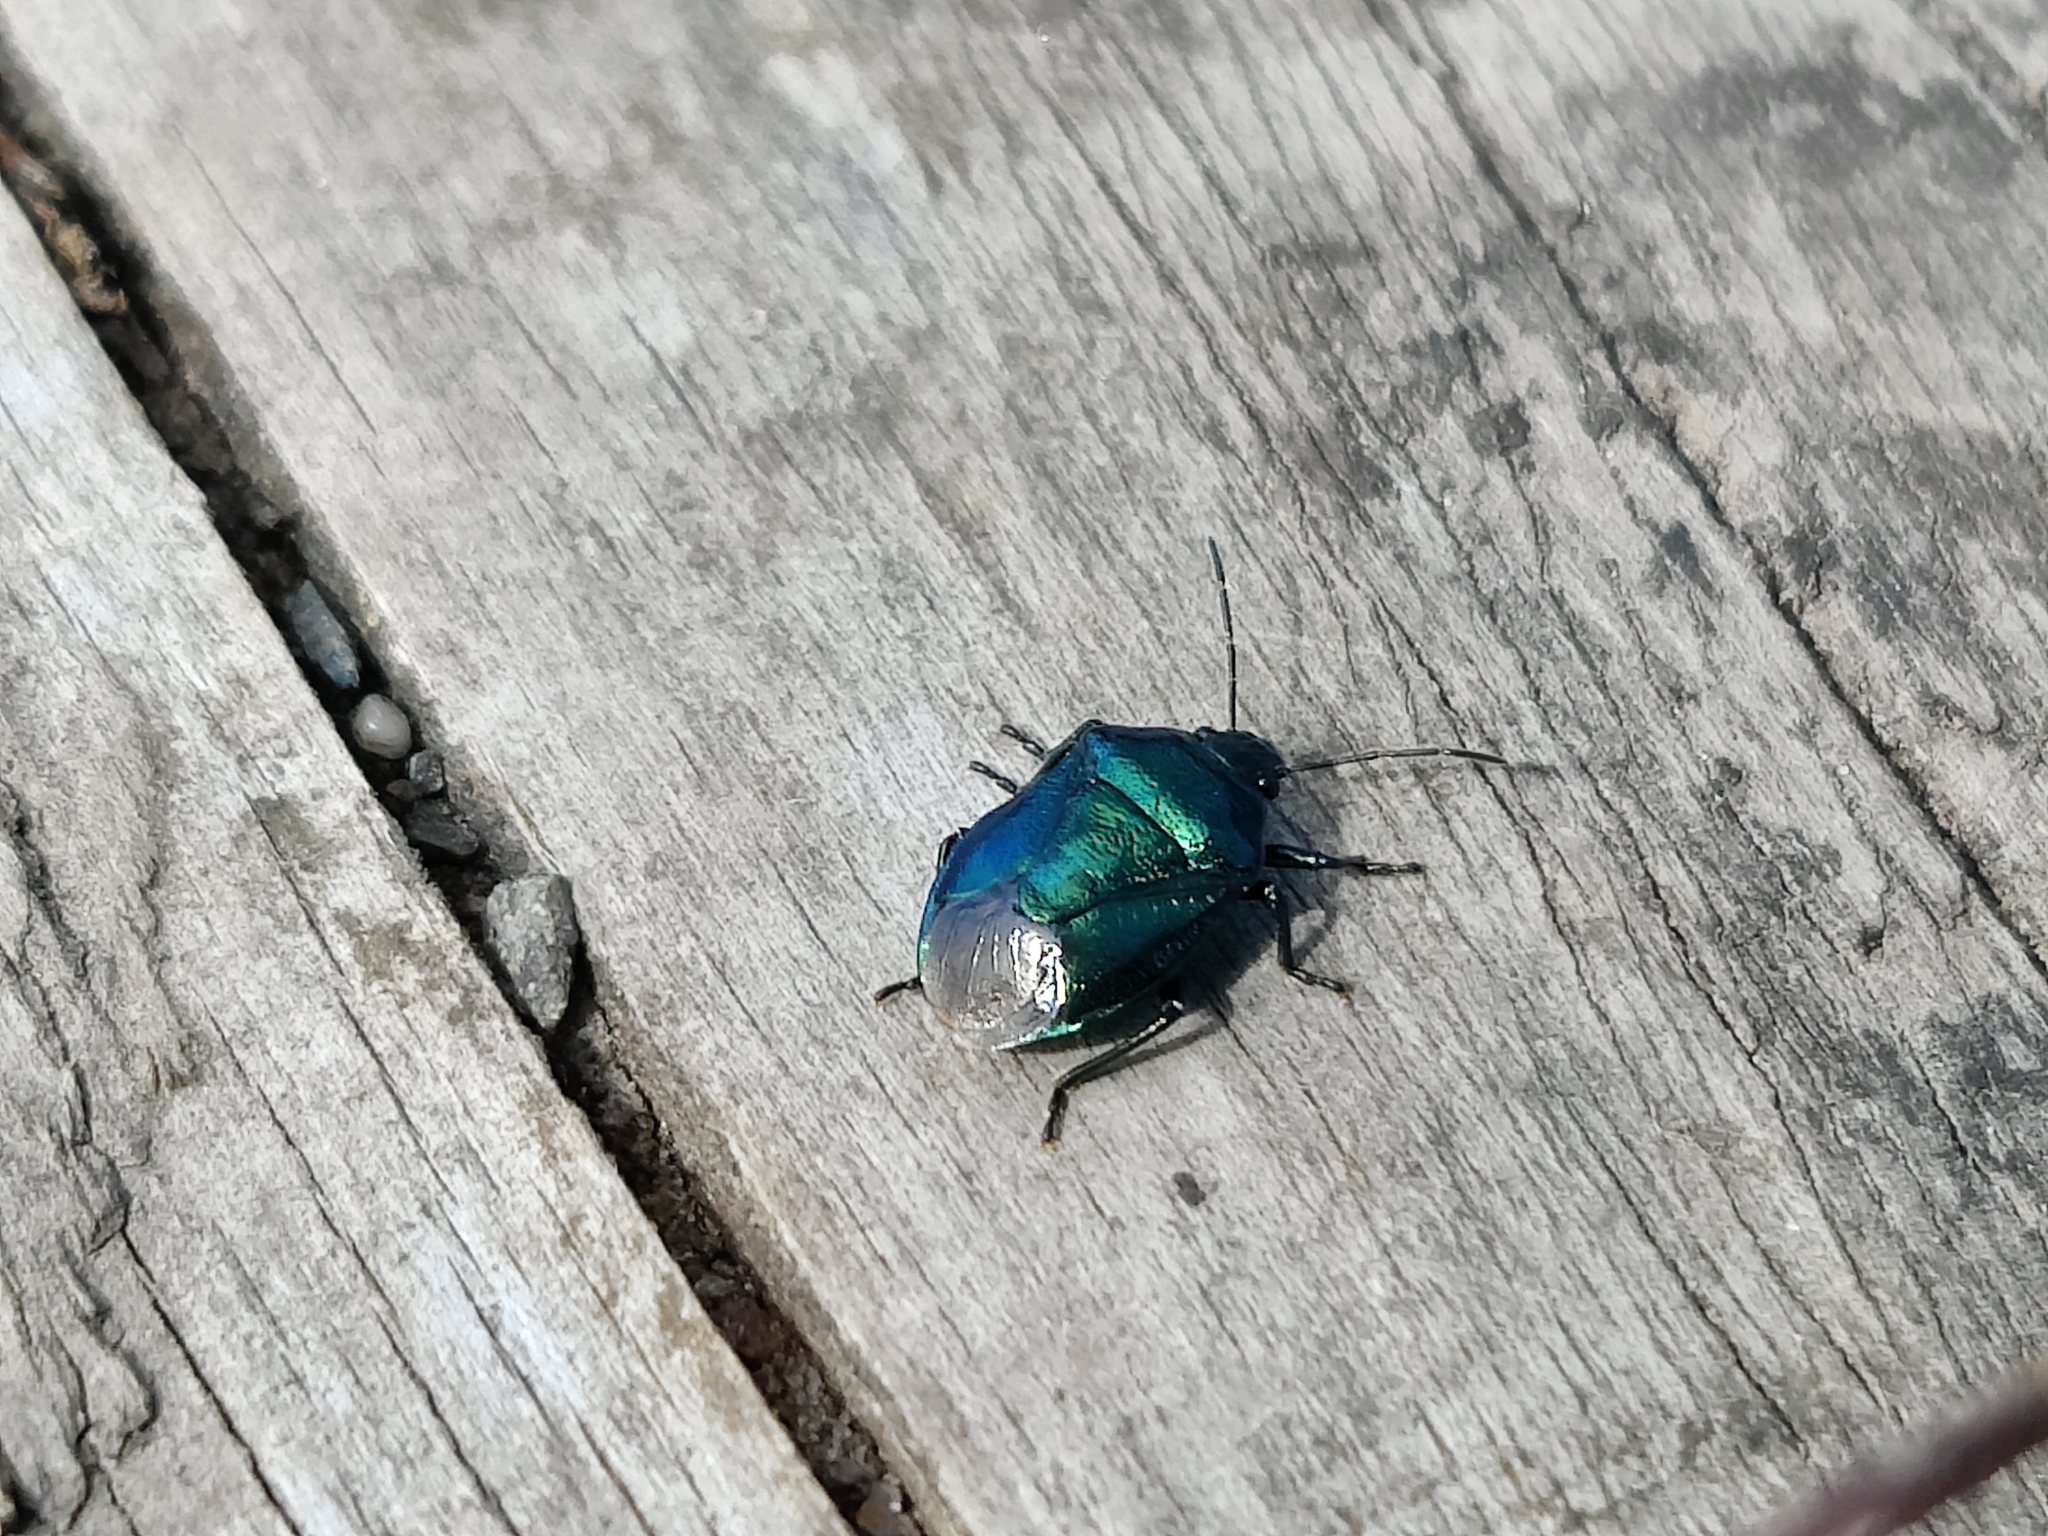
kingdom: Animalia
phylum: Arthropoda
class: Insecta
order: Hemiptera
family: Pentatomidae
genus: Zicrona
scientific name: Zicrona caerulea
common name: Blue shieldbug
